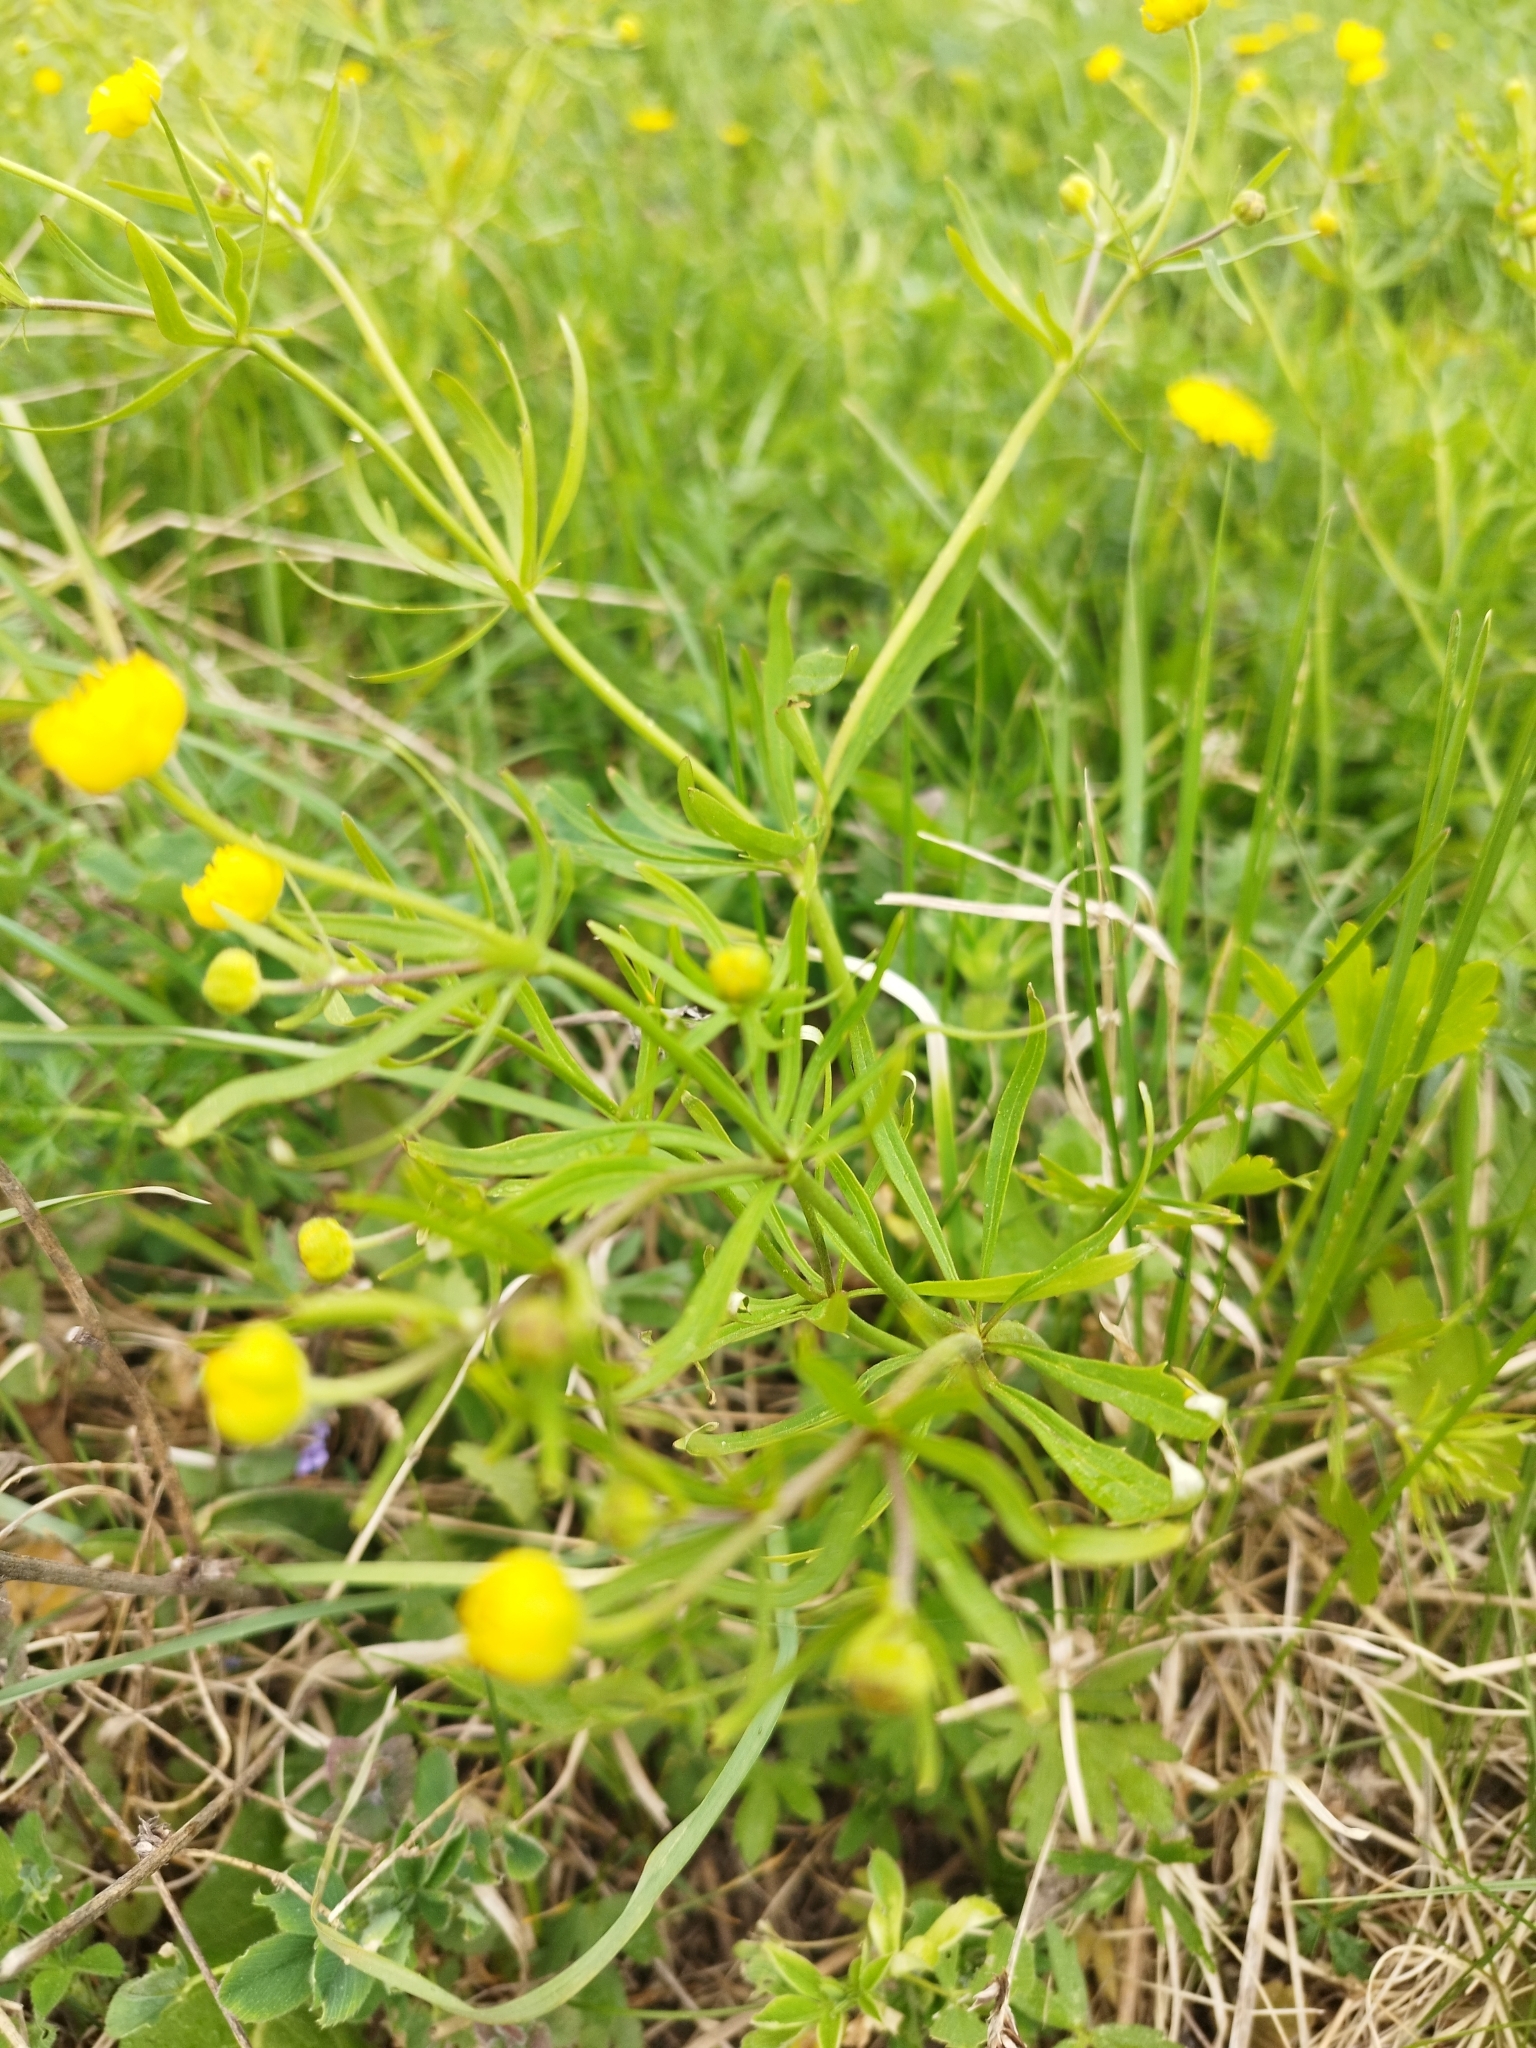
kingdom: Plantae
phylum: Tracheophyta
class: Magnoliopsida
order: Ranunculales
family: Ranunculaceae
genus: Ranunculus
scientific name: Ranunculus auricomus
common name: Goldilocks buttercup
